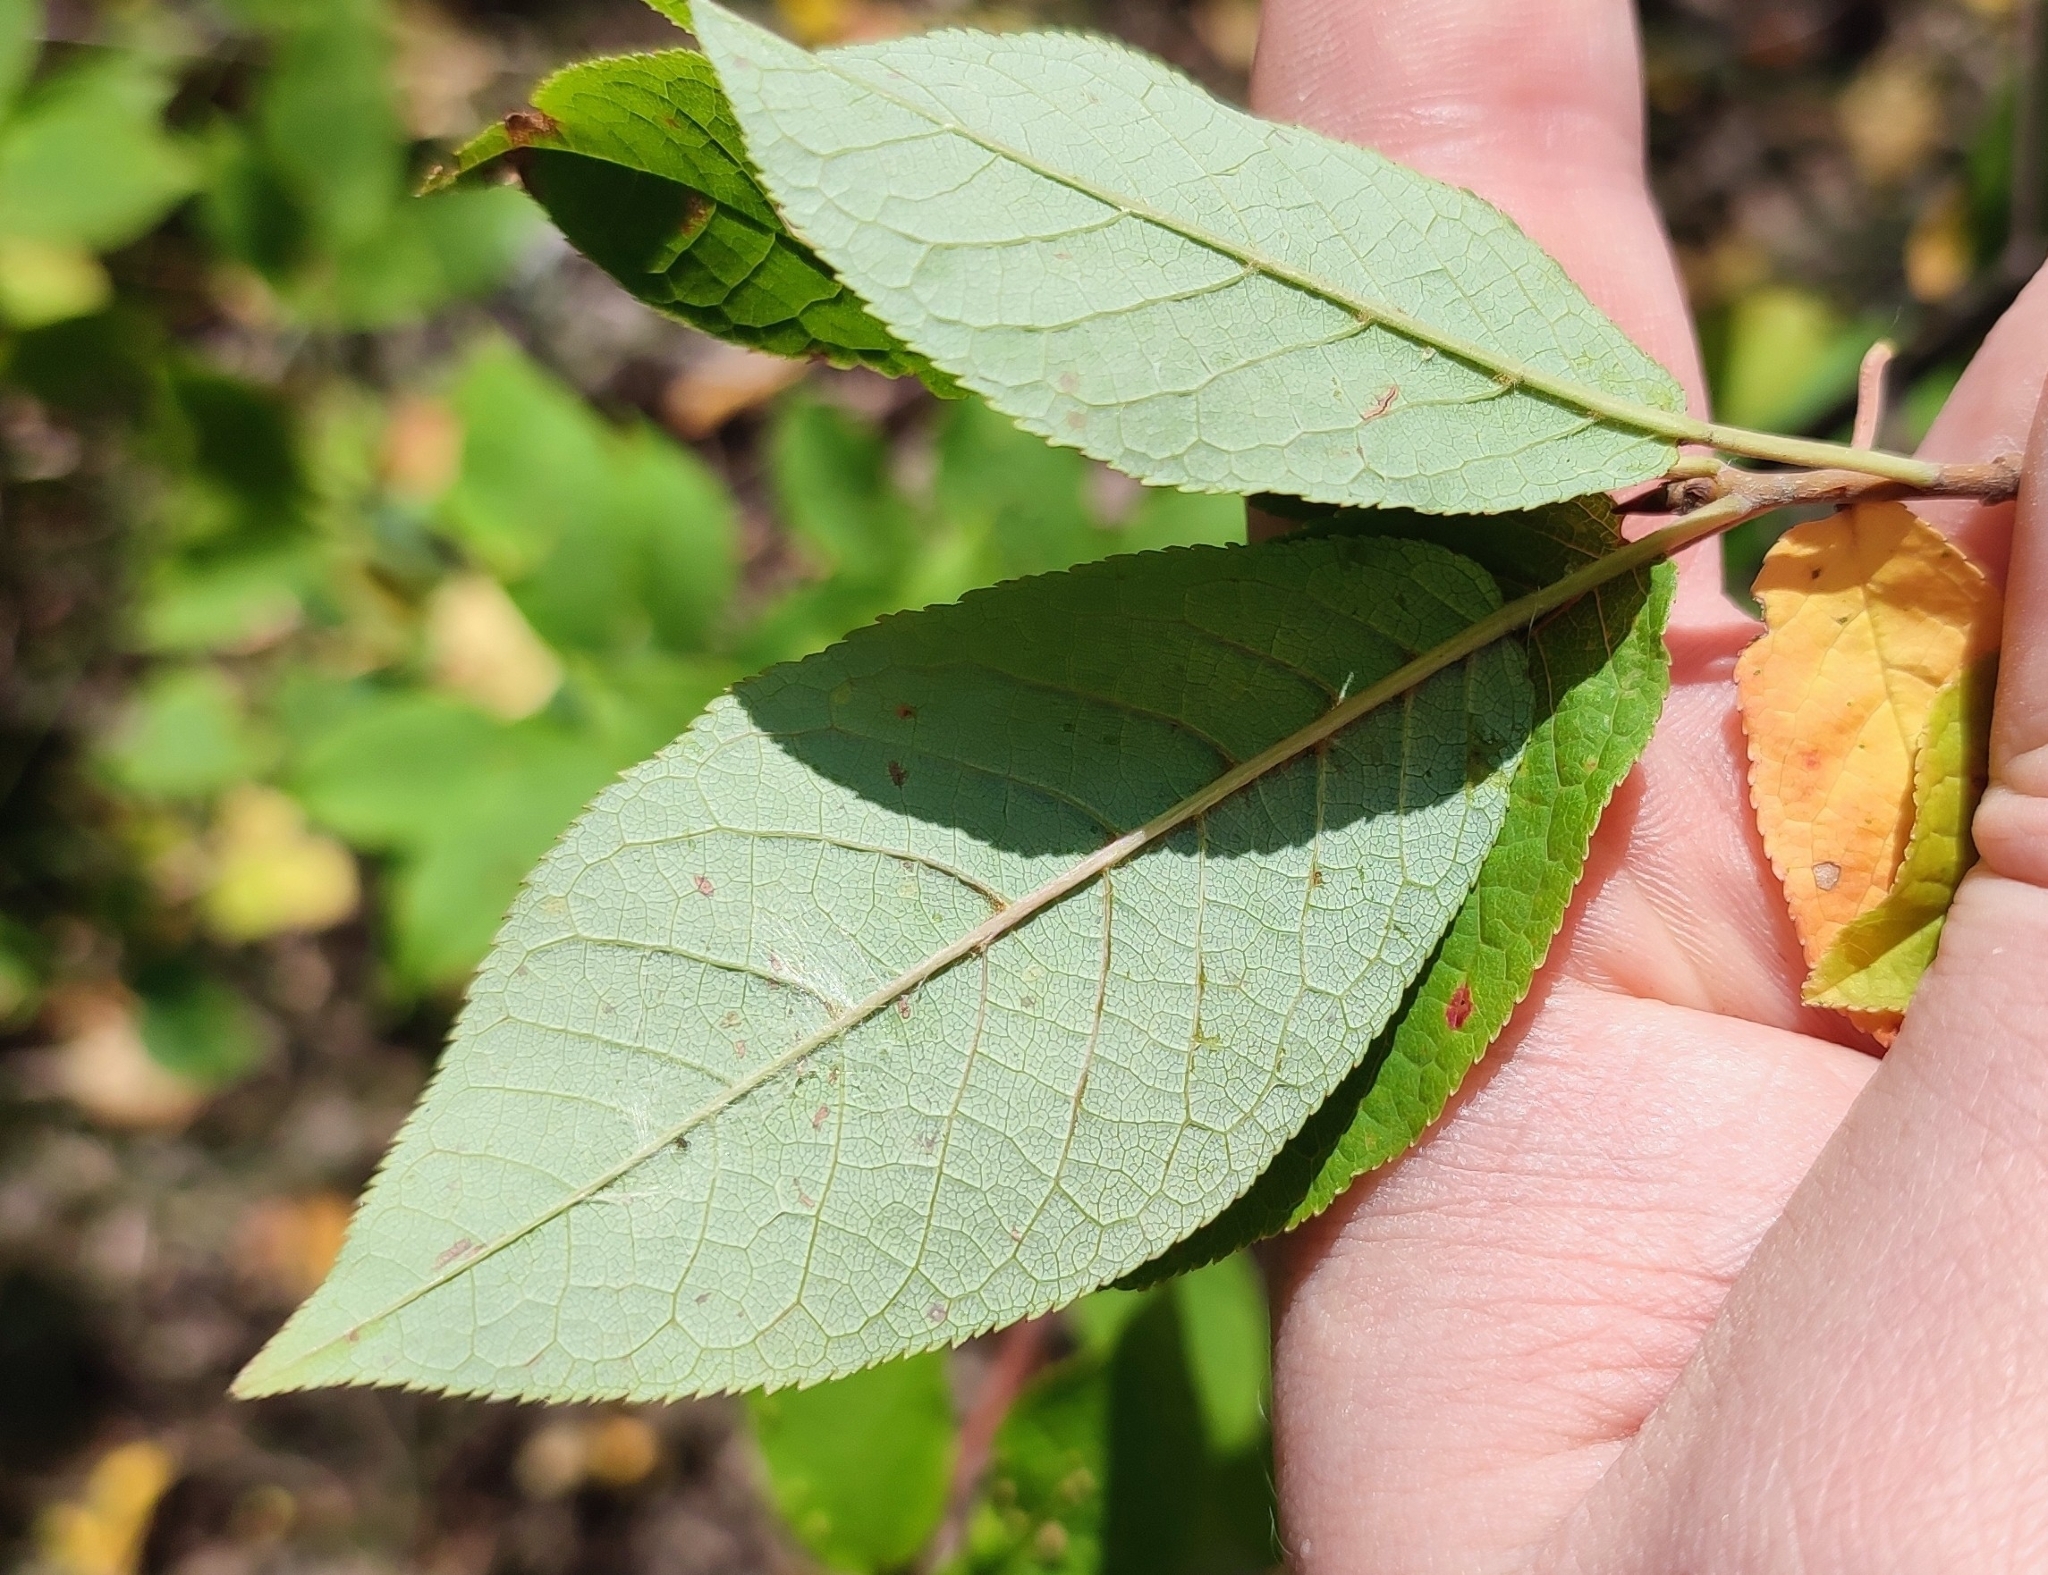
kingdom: Plantae
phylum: Tracheophyta
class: Magnoliopsida
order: Rosales
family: Rosaceae
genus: Prunus
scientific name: Prunus padus
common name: Bird cherry
